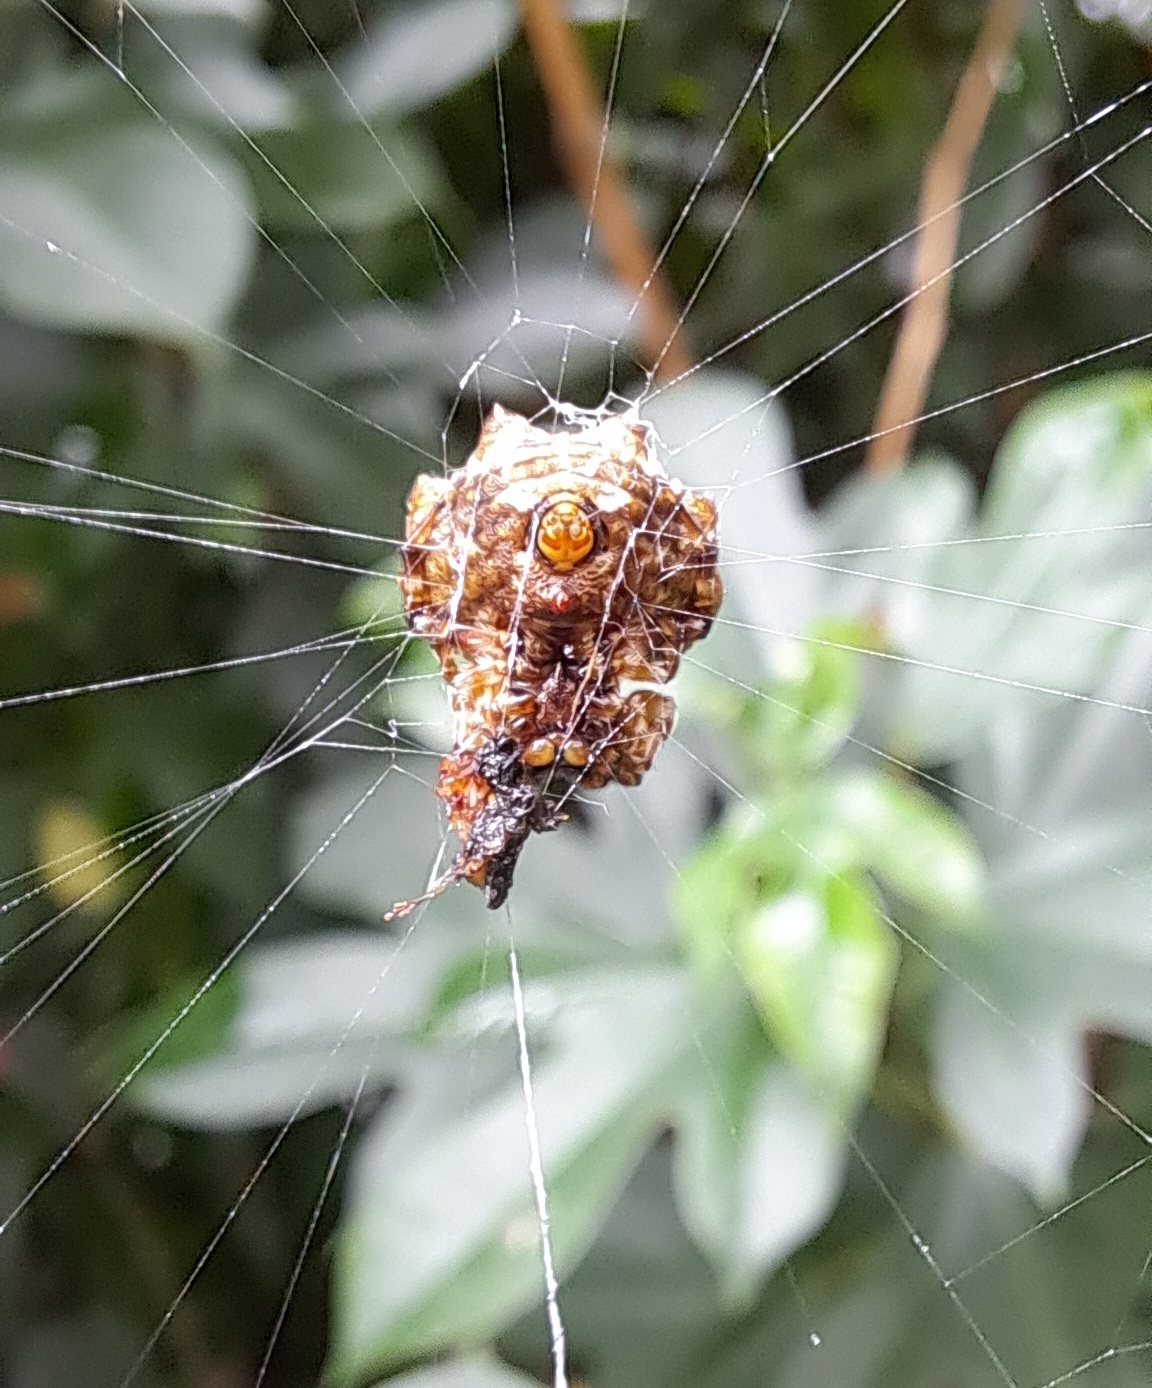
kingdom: Animalia
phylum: Arthropoda
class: Arachnida
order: Araneae
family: Araneidae
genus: Thelacantha
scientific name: Thelacantha brevispina
